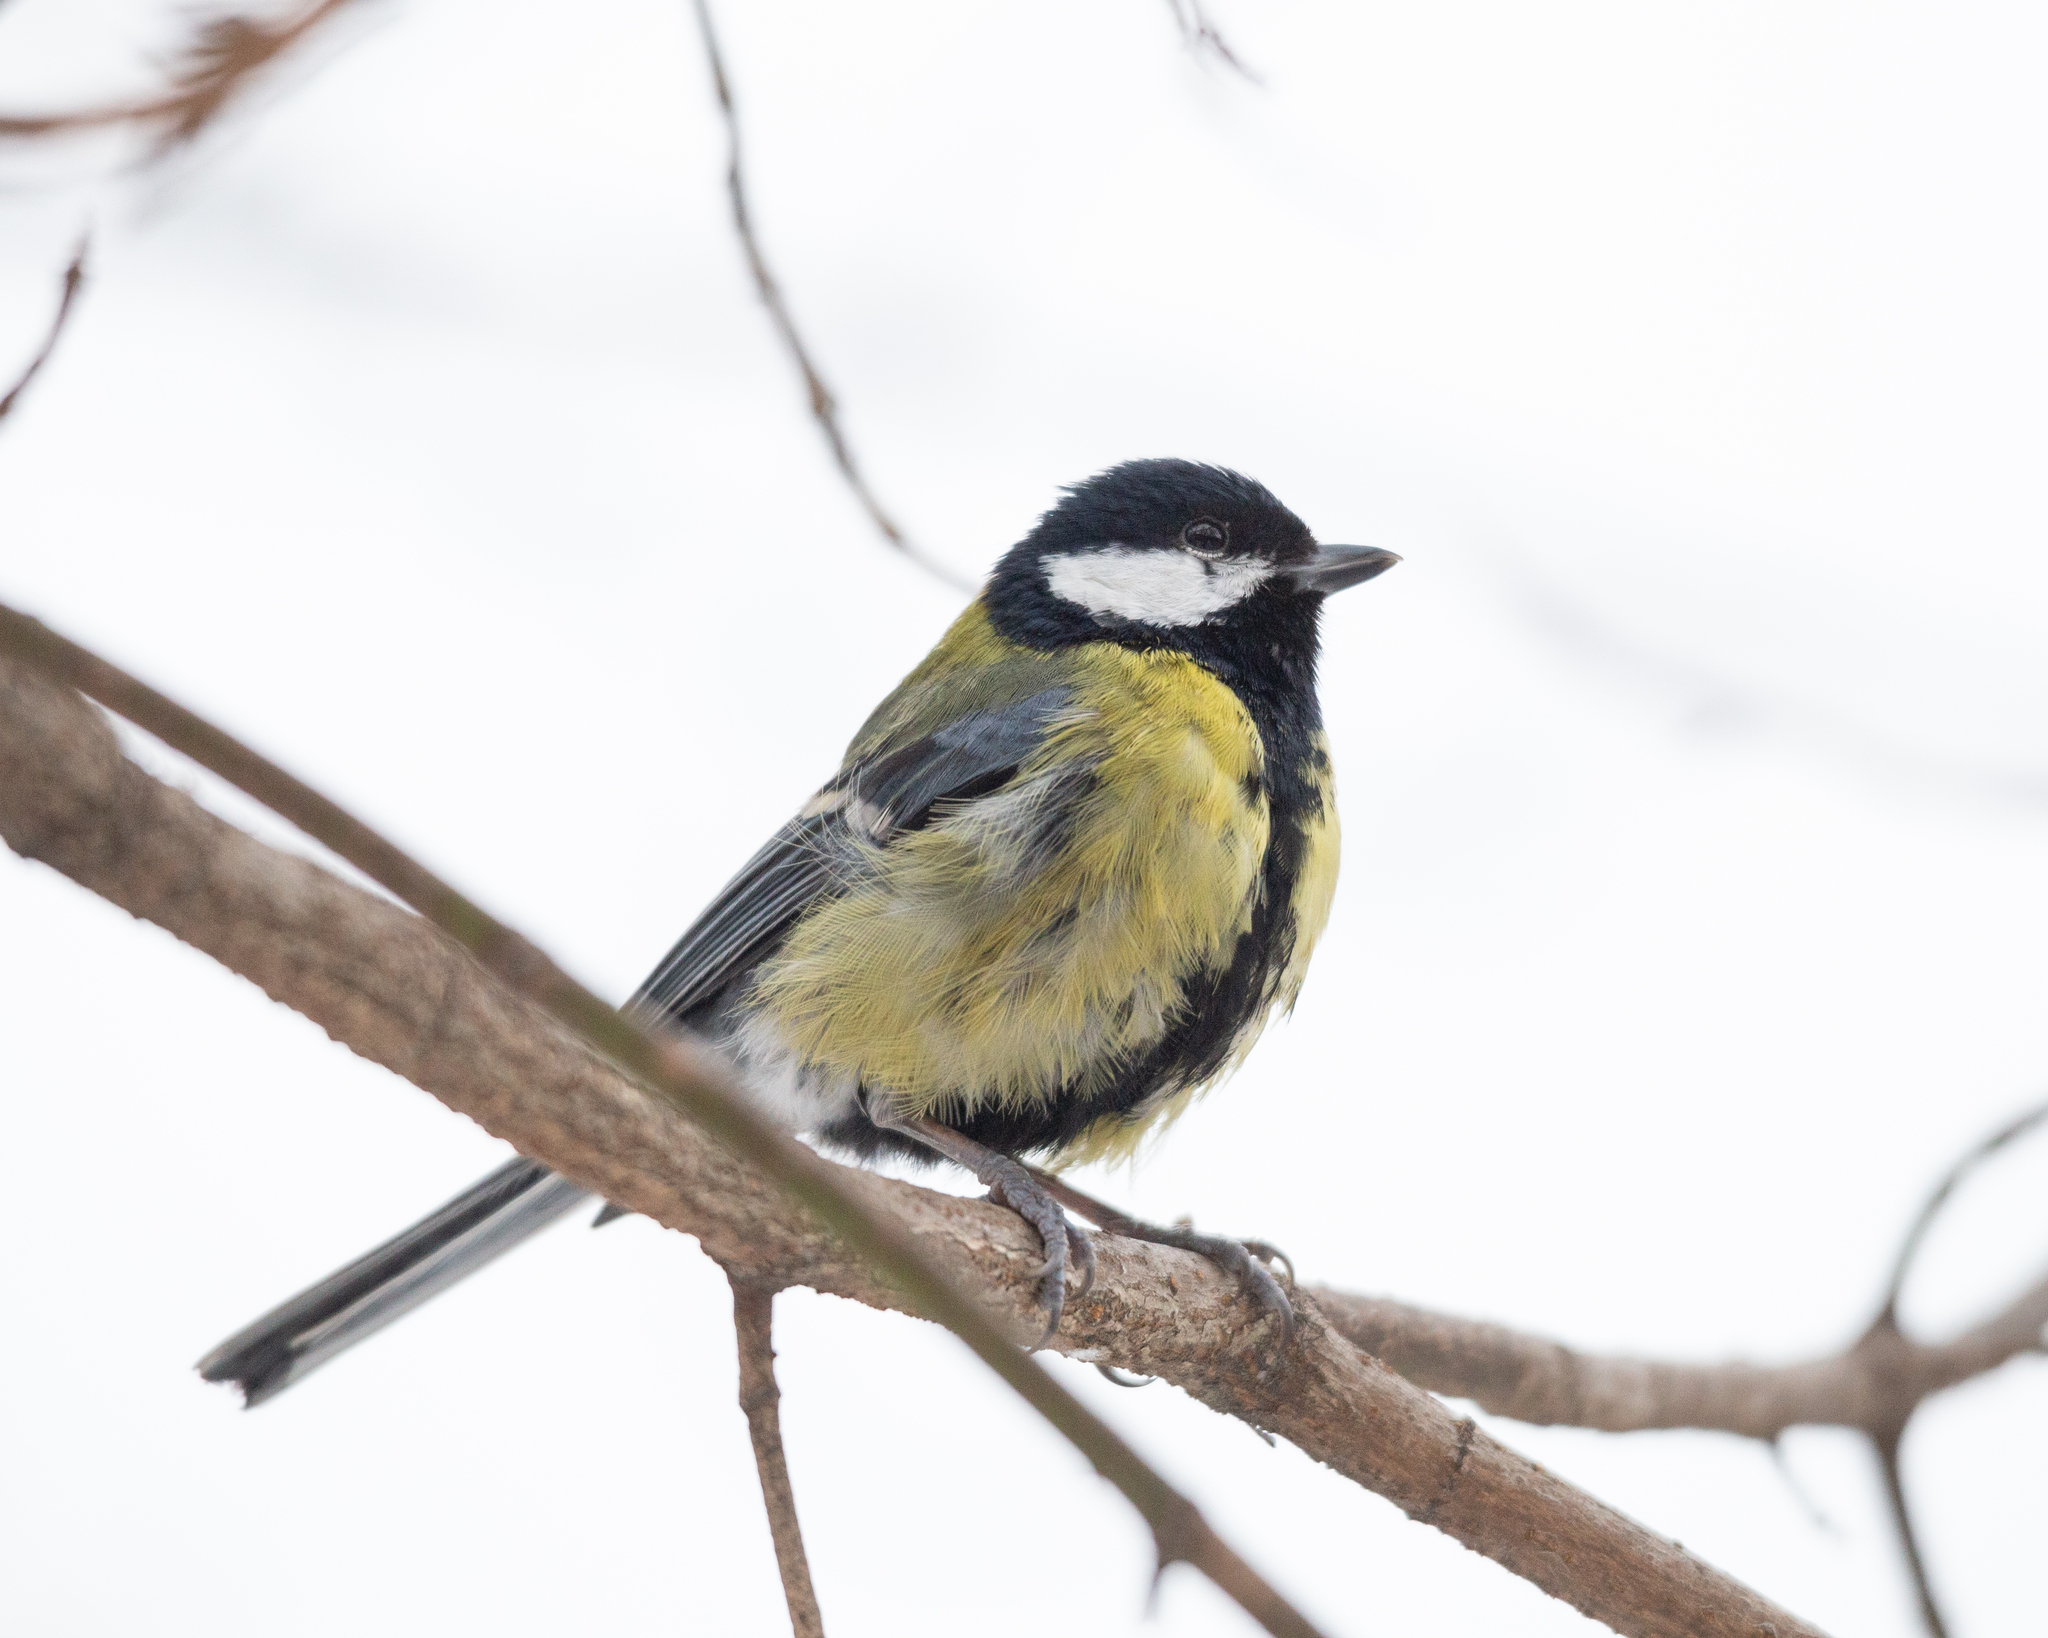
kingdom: Animalia
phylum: Chordata
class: Aves
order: Passeriformes
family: Paridae
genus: Parus
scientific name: Parus major
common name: Great tit
